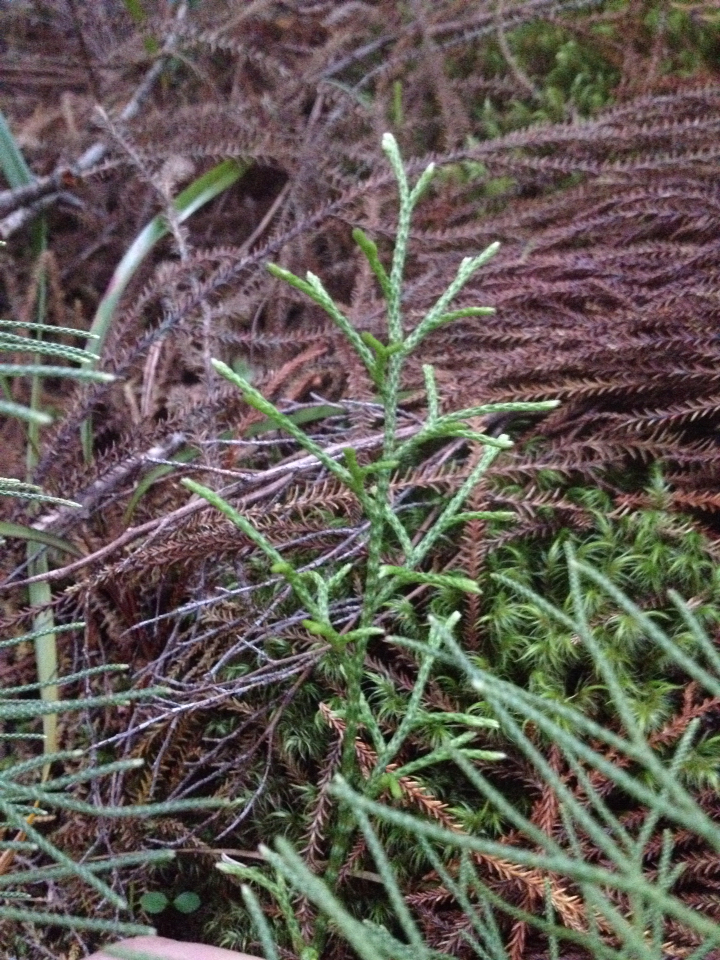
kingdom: Plantae
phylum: Tracheophyta
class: Lycopodiopsida
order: Lycopodiales
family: Lycopodiaceae
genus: Pseudolycopodium
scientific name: Pseudolycopodium densum
